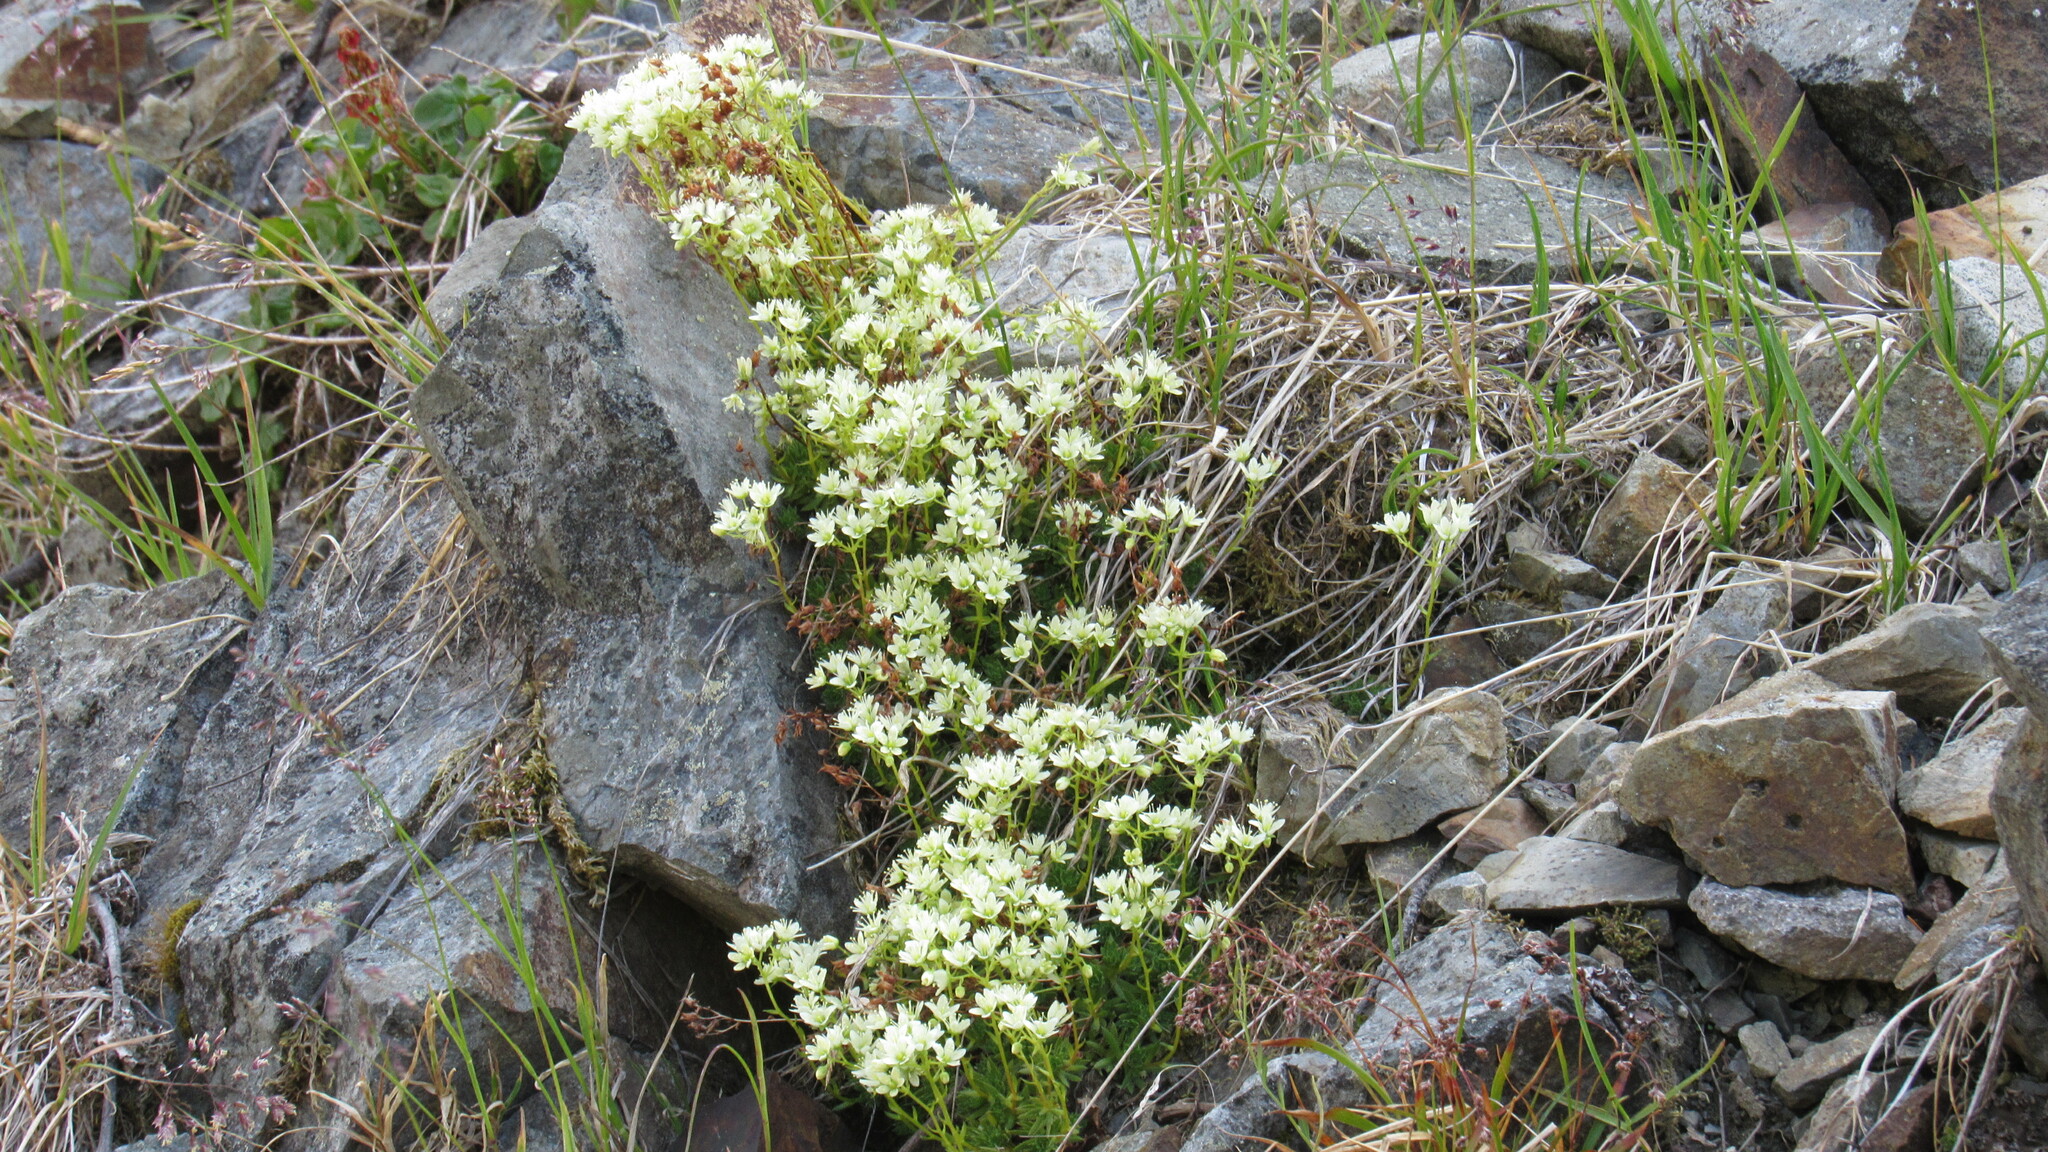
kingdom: Plantae
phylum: Tracheophyta
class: Magnoliopsida
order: Saxifragales
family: Saxifragaceae
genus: Saxifraga
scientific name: Saxifraga bronchialis
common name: Matted saxifrage
